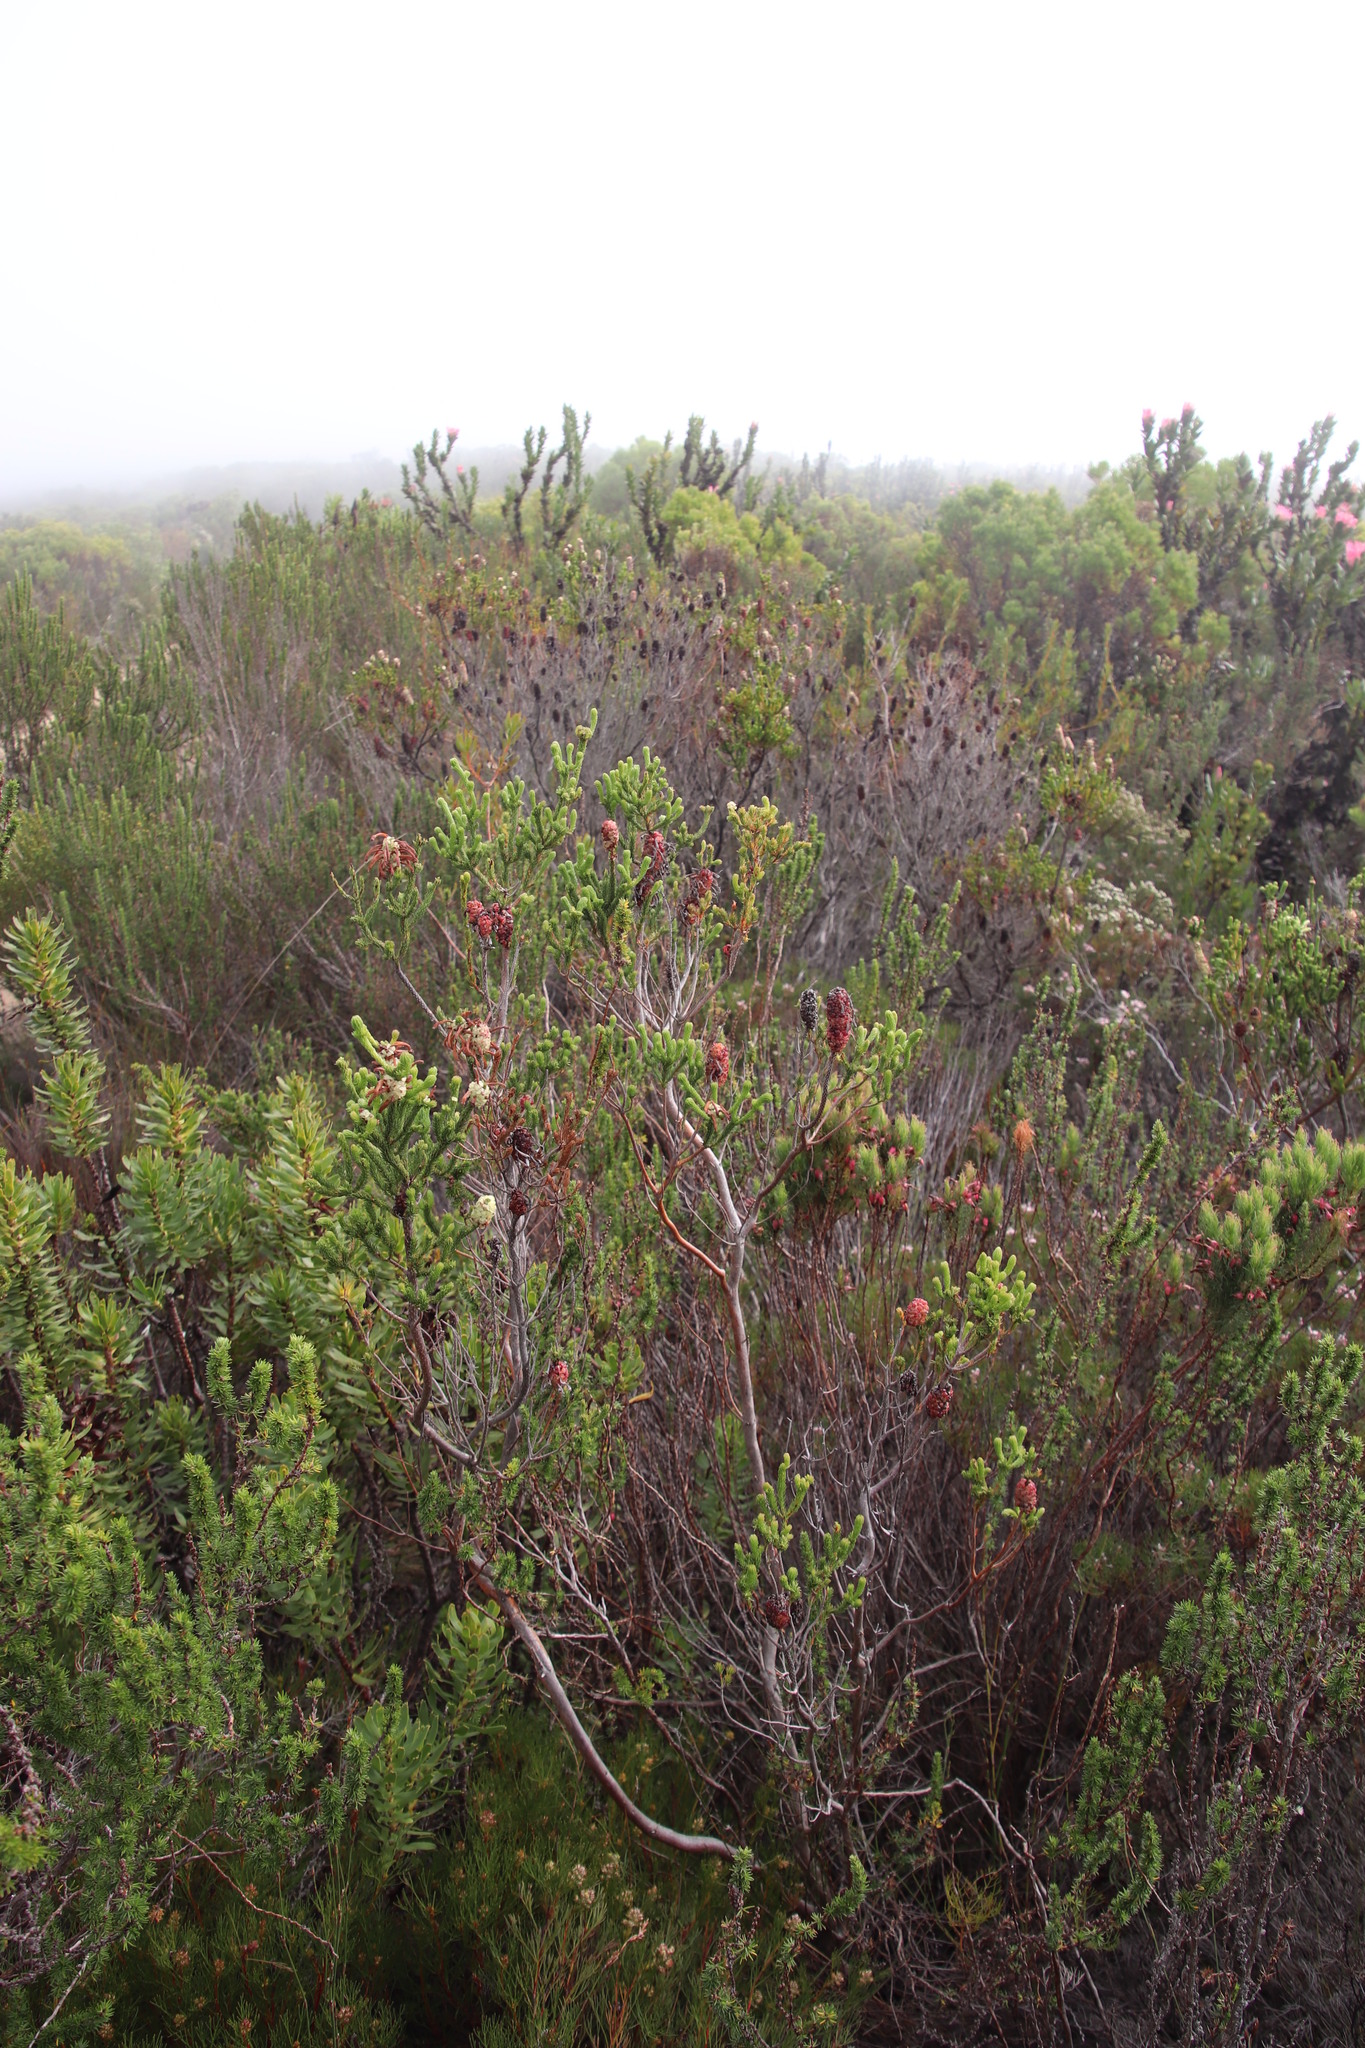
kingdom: Plantae
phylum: Tracheophyta
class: Magnoliopsida
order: Ericales
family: Ericaceae
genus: Erica
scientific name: Erica sessiliflora
